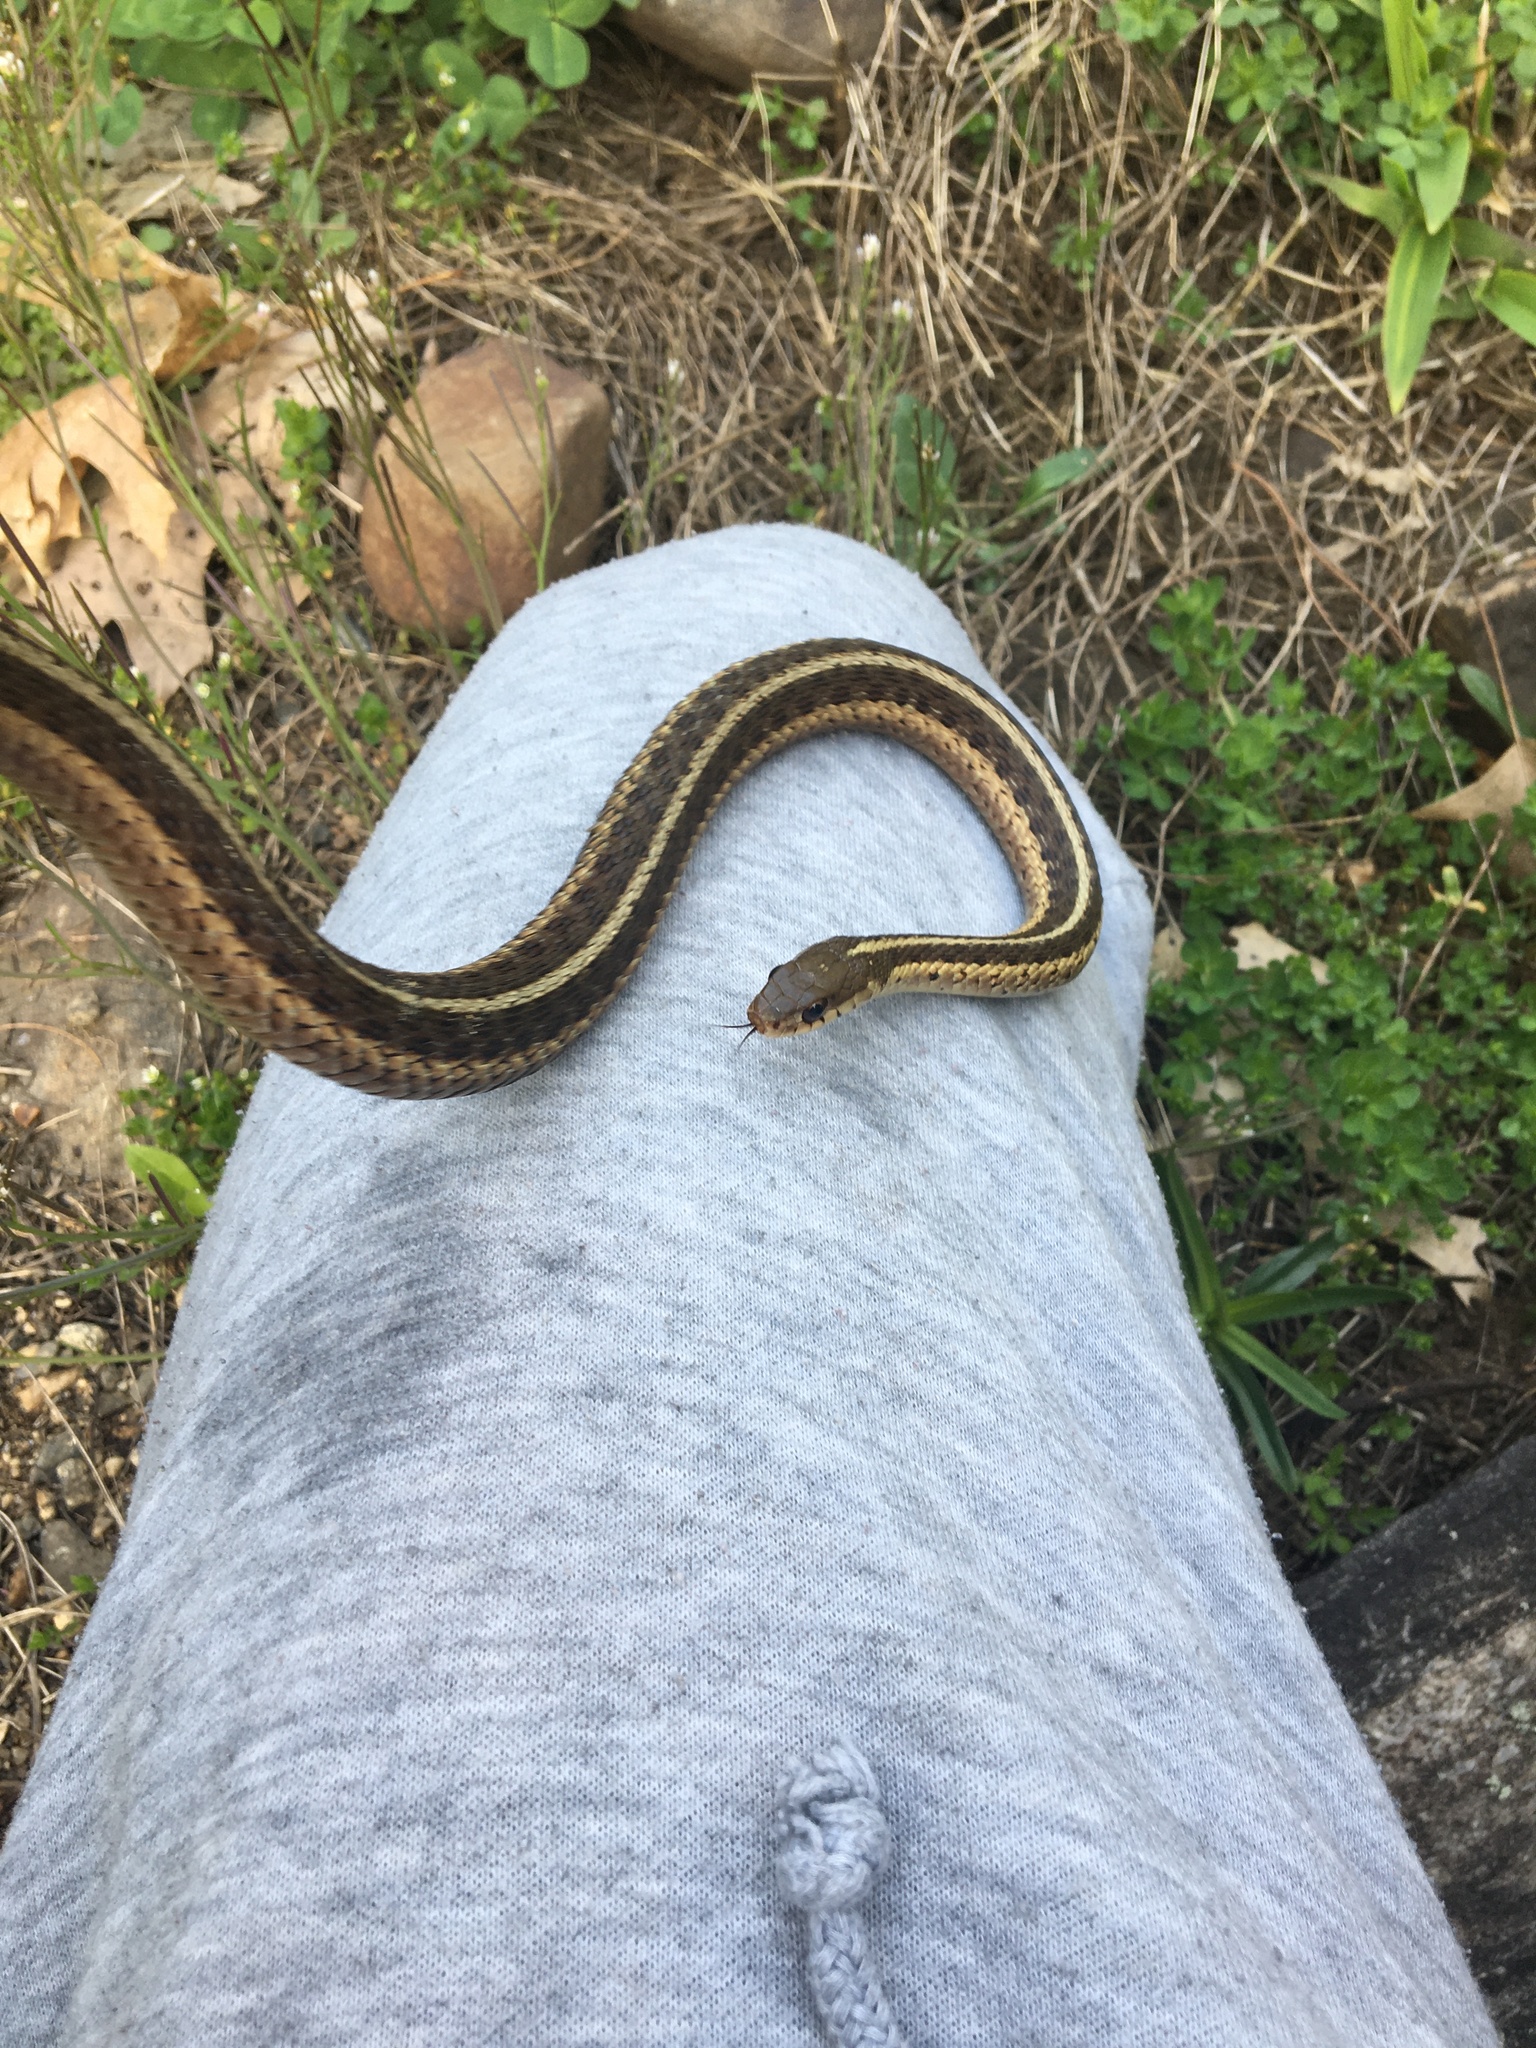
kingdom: Animalia
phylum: Chordata
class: Squamata
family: Colubridae
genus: Thamnophis
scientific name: Thamnophis sirtalis
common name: Common garter snake
